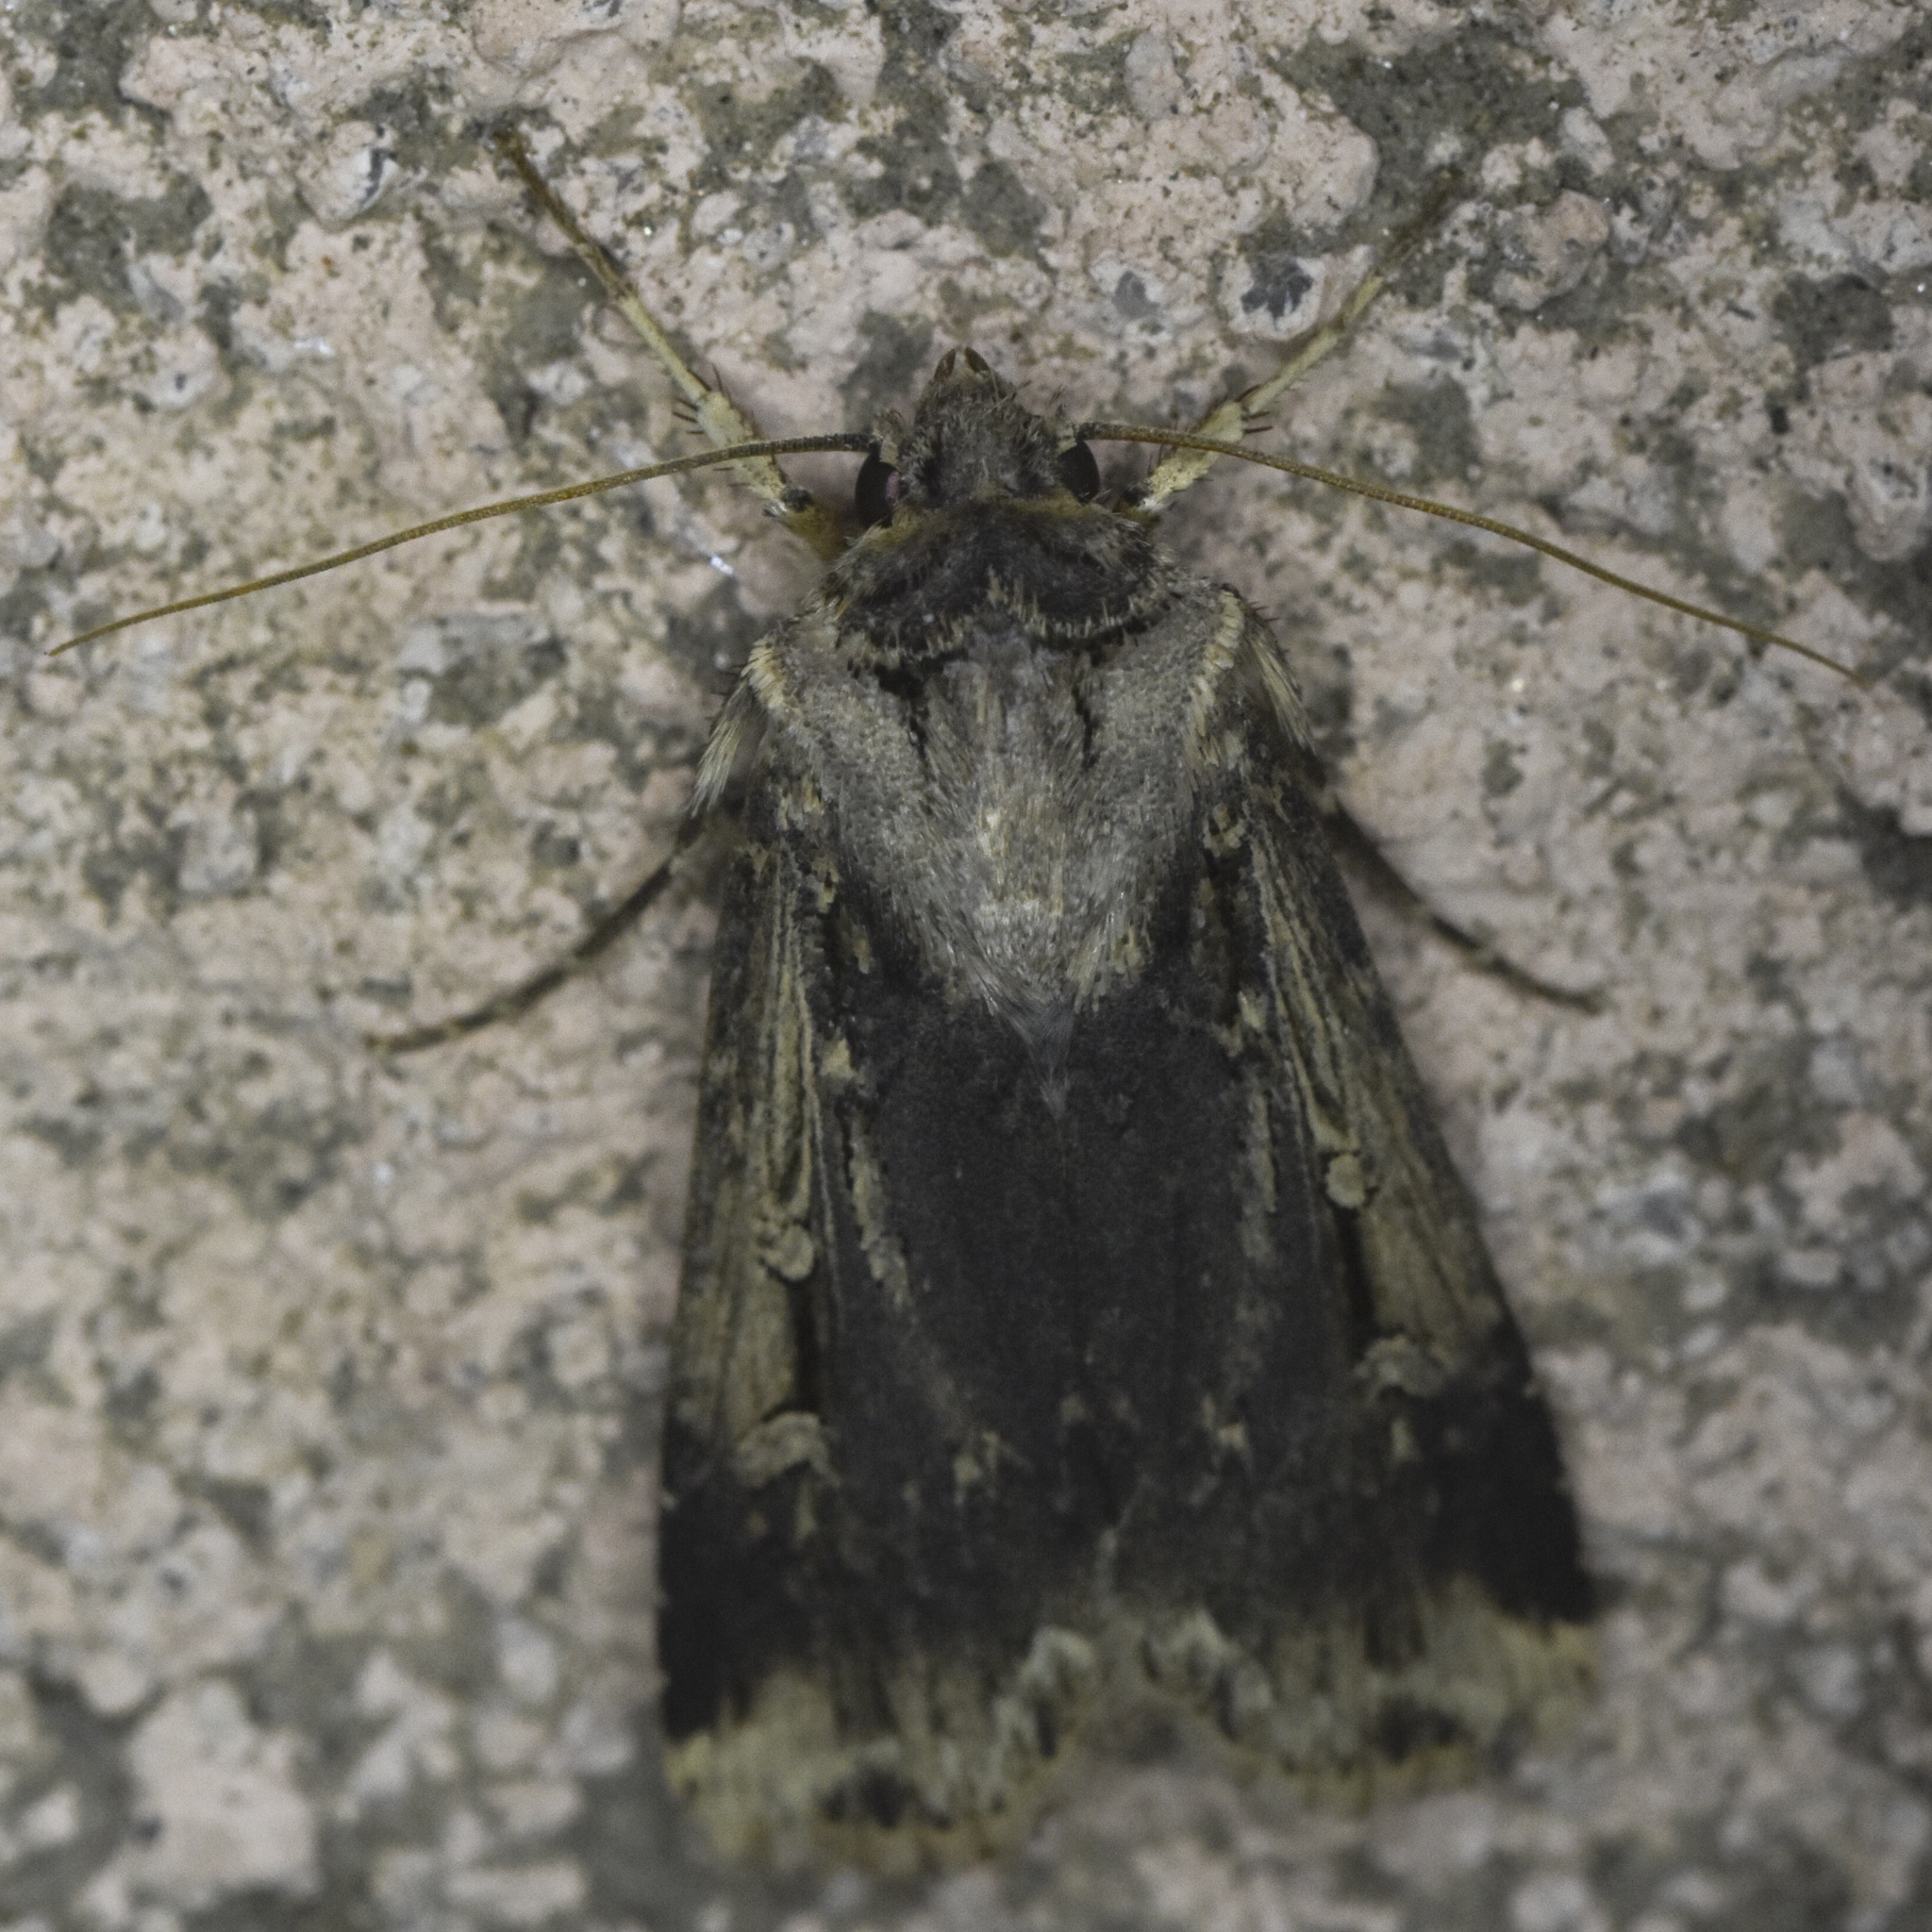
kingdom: Animalia
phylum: Arthropoda
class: Insecta
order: Lepidoptera
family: Noctuidae
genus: Feltia
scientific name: Feltia subterranea
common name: Granulate cutworm
